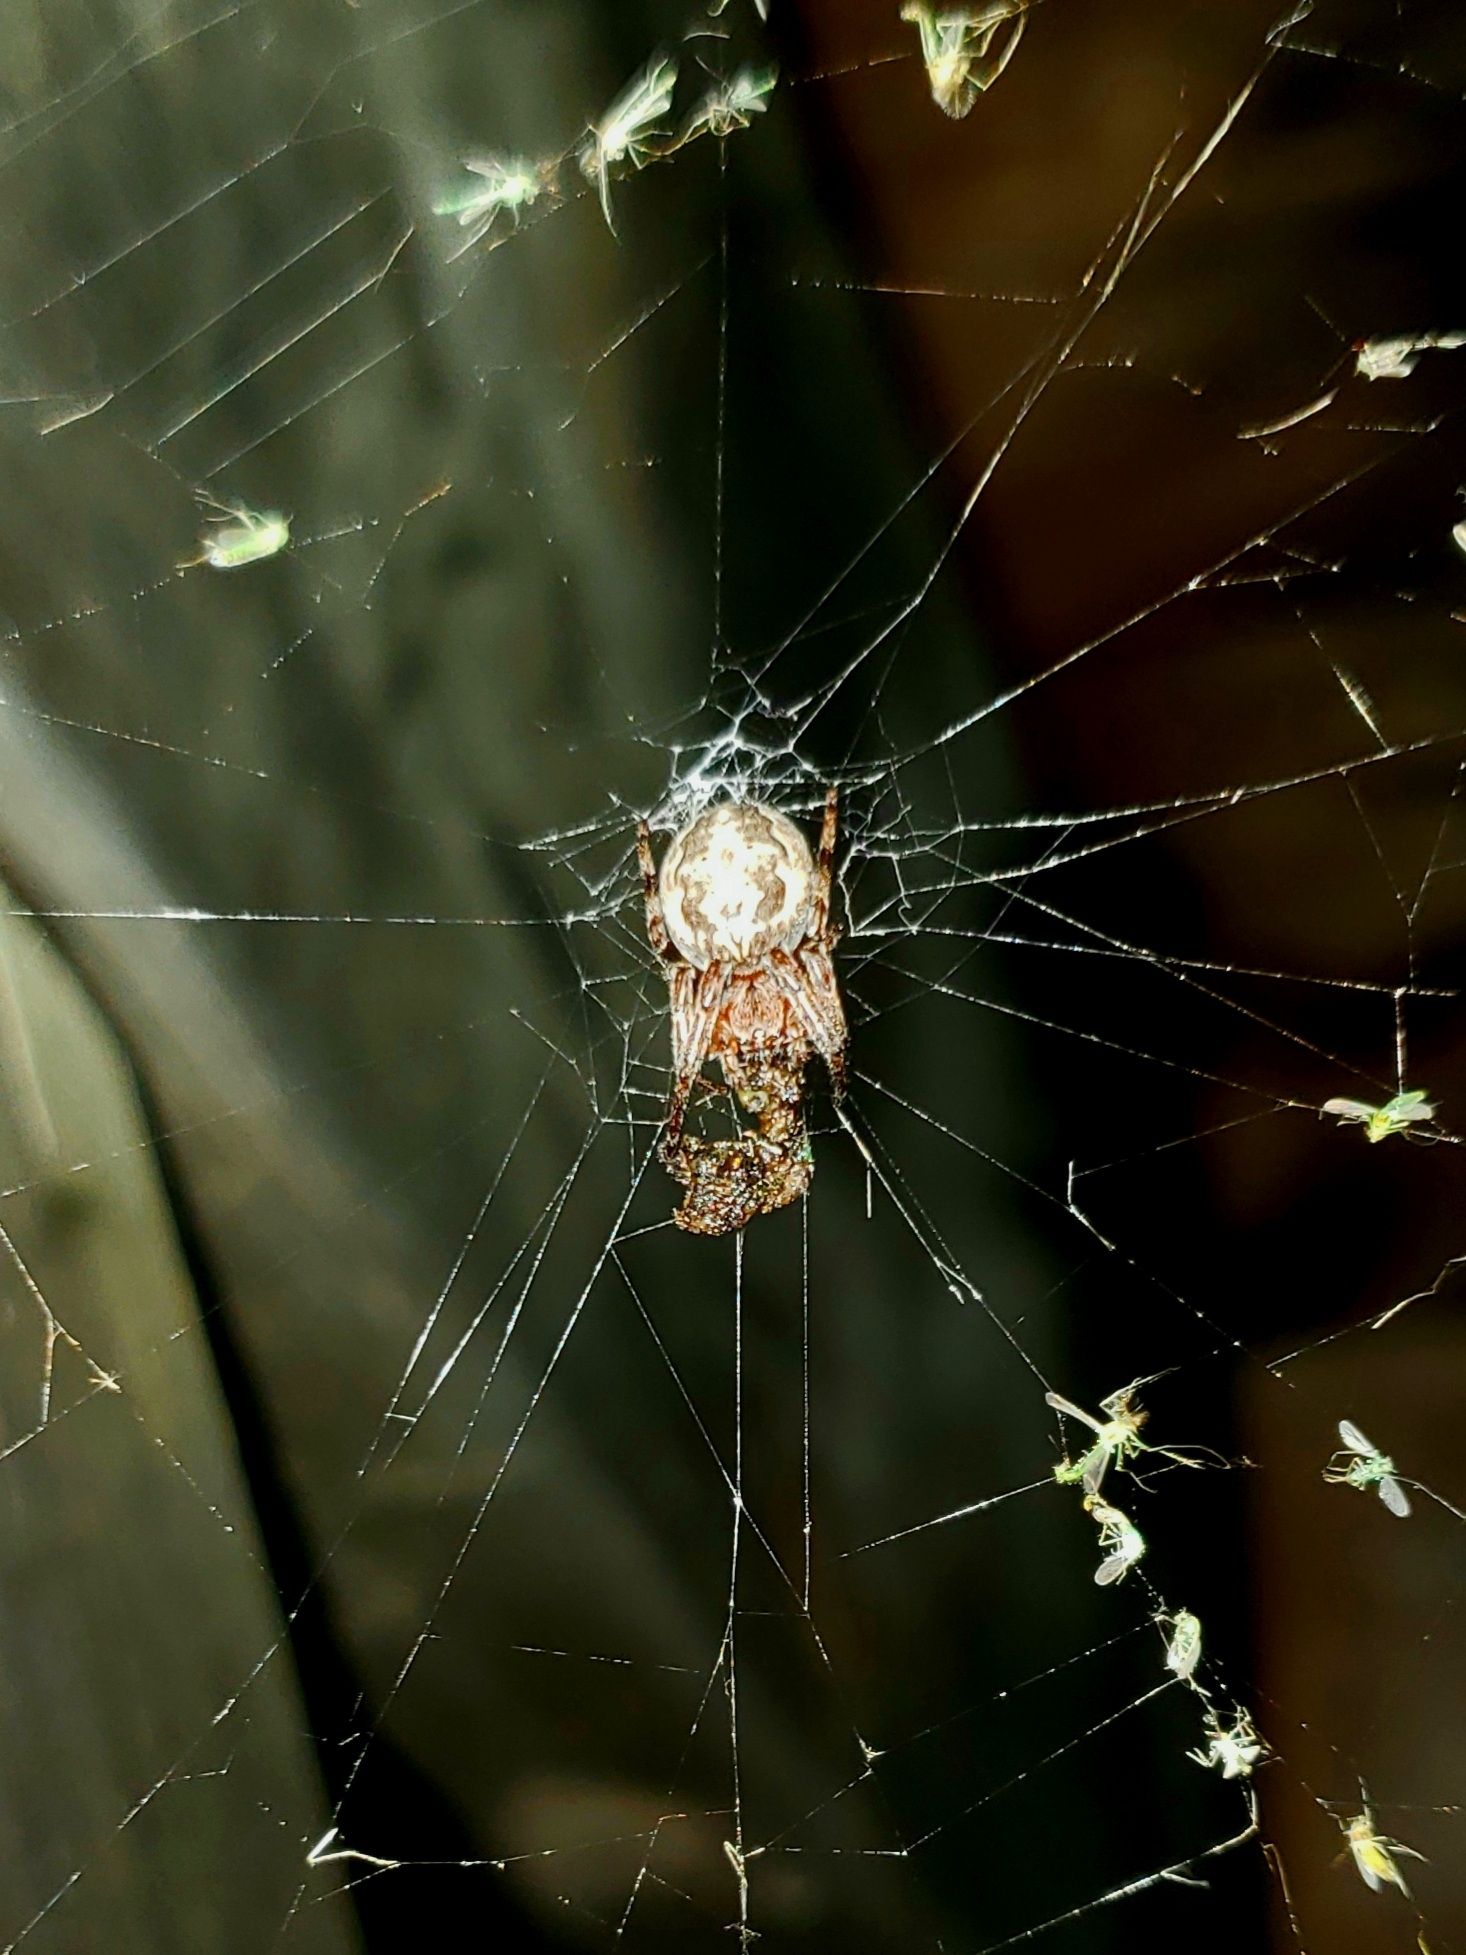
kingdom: Animalia
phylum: Arthropoda
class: Arachnida
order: Araneae
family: Araneidae
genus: Larinioides
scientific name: Larinioides cornutus
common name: Furrow orbweaver
